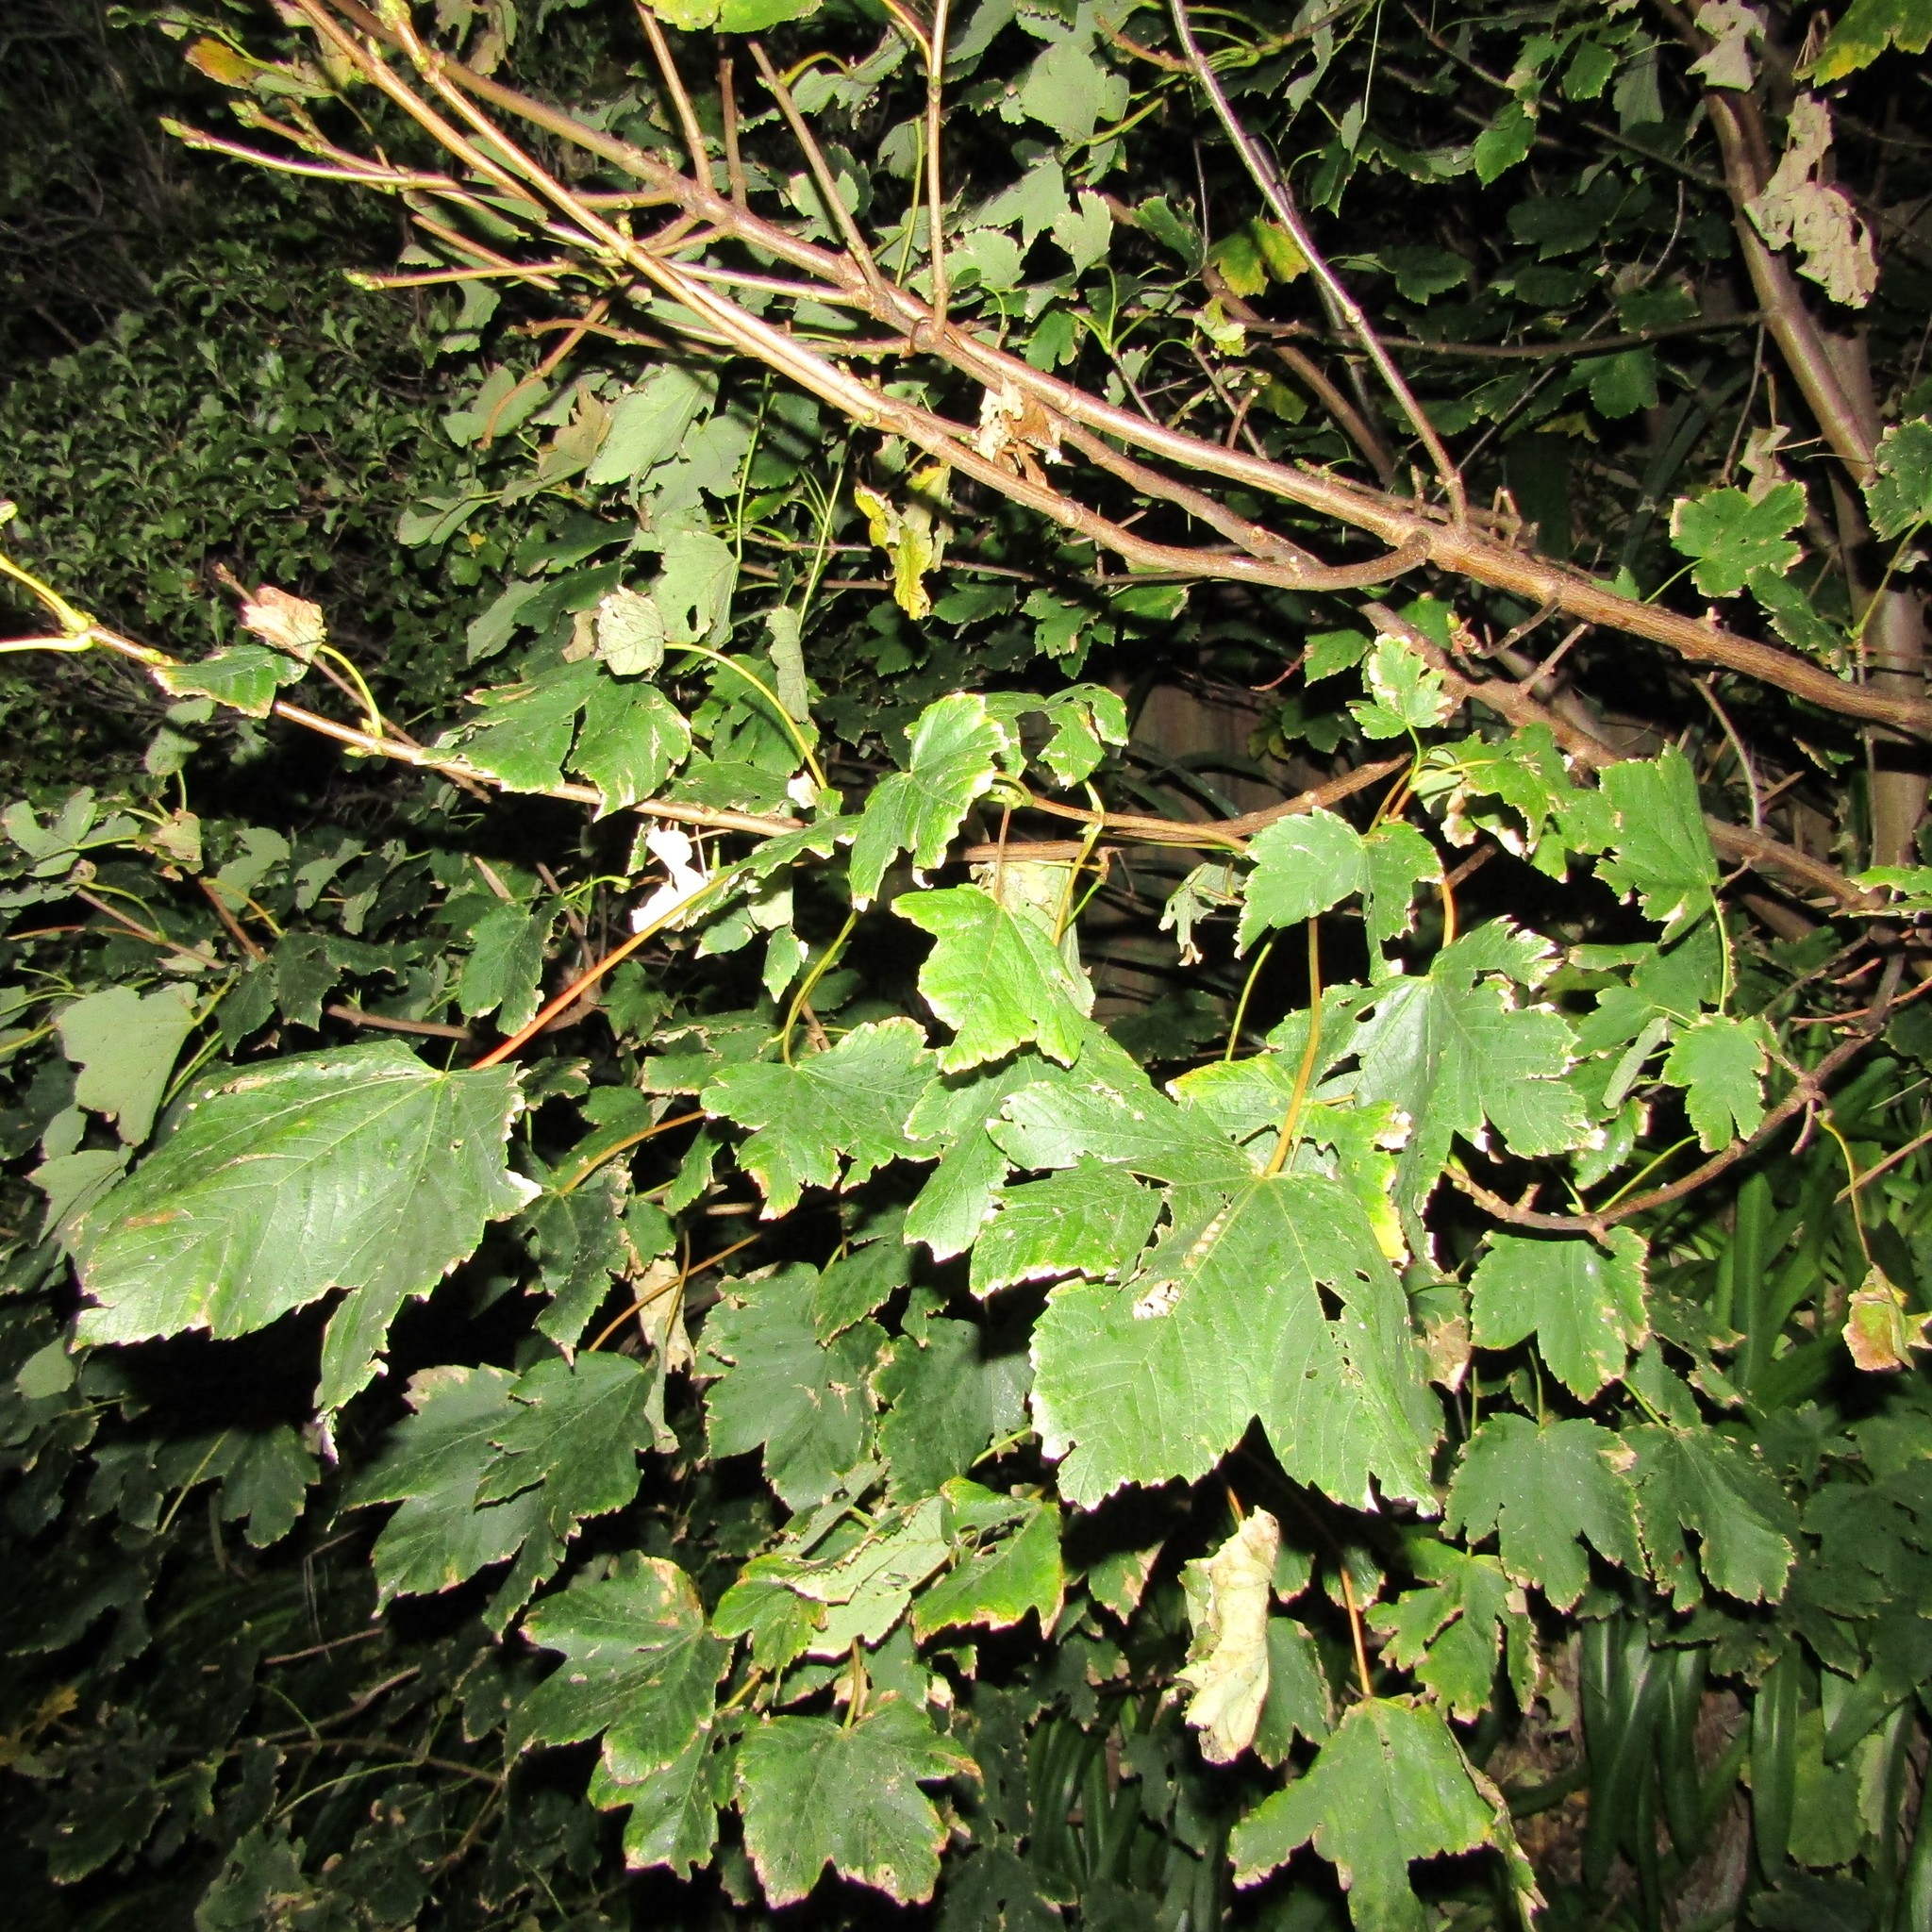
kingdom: Plantae
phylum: Tracheophyta
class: Magnoliopsida
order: Sapindales
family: Sapindaceae
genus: Acer
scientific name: Acer pseudoplatanus
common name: Sycamore
